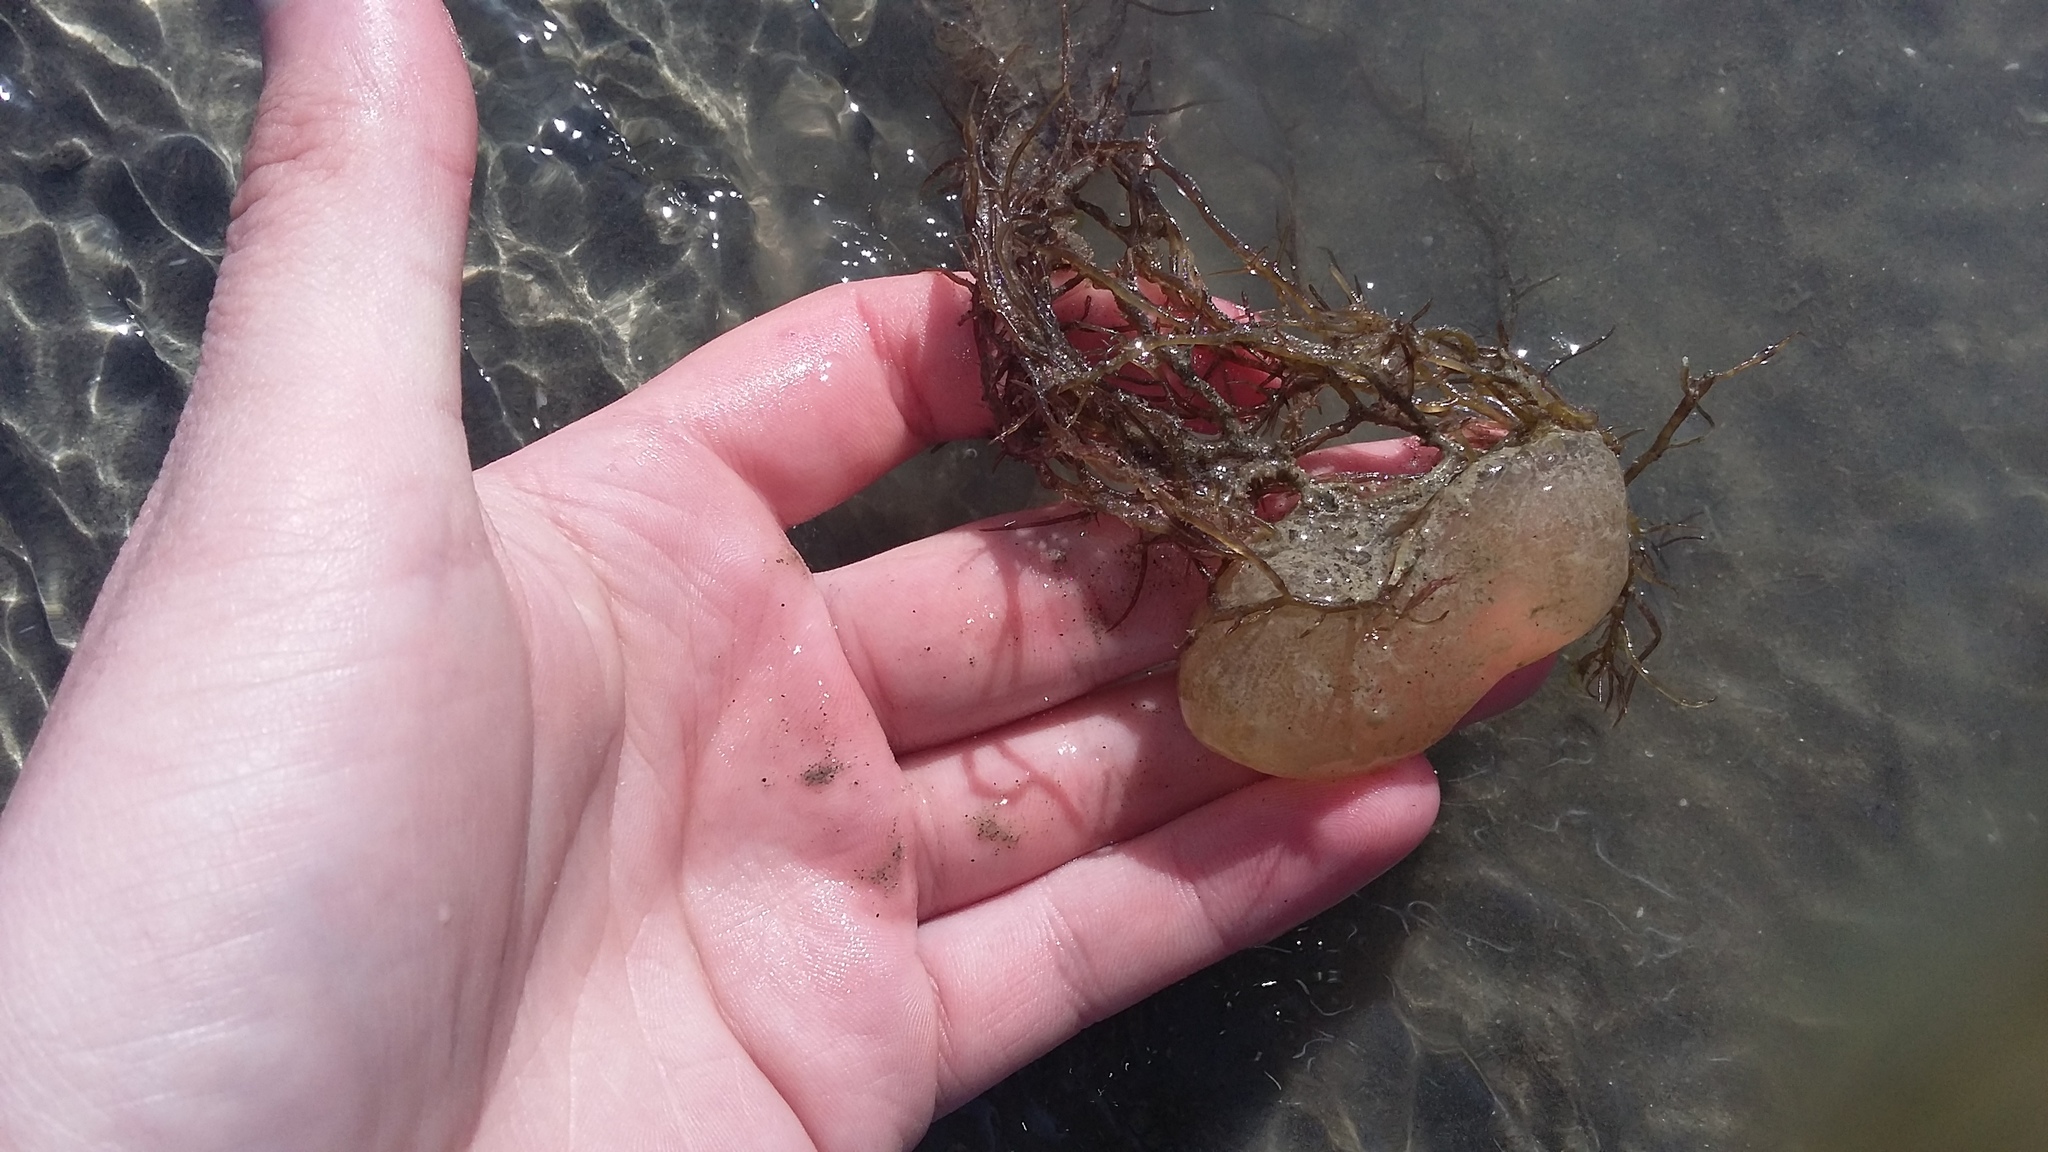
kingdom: Animalia
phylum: Mollusca
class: Gastropoda
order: Cephalaspidea
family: Haminoeidae
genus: Papawera
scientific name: Papawera zelandiae
